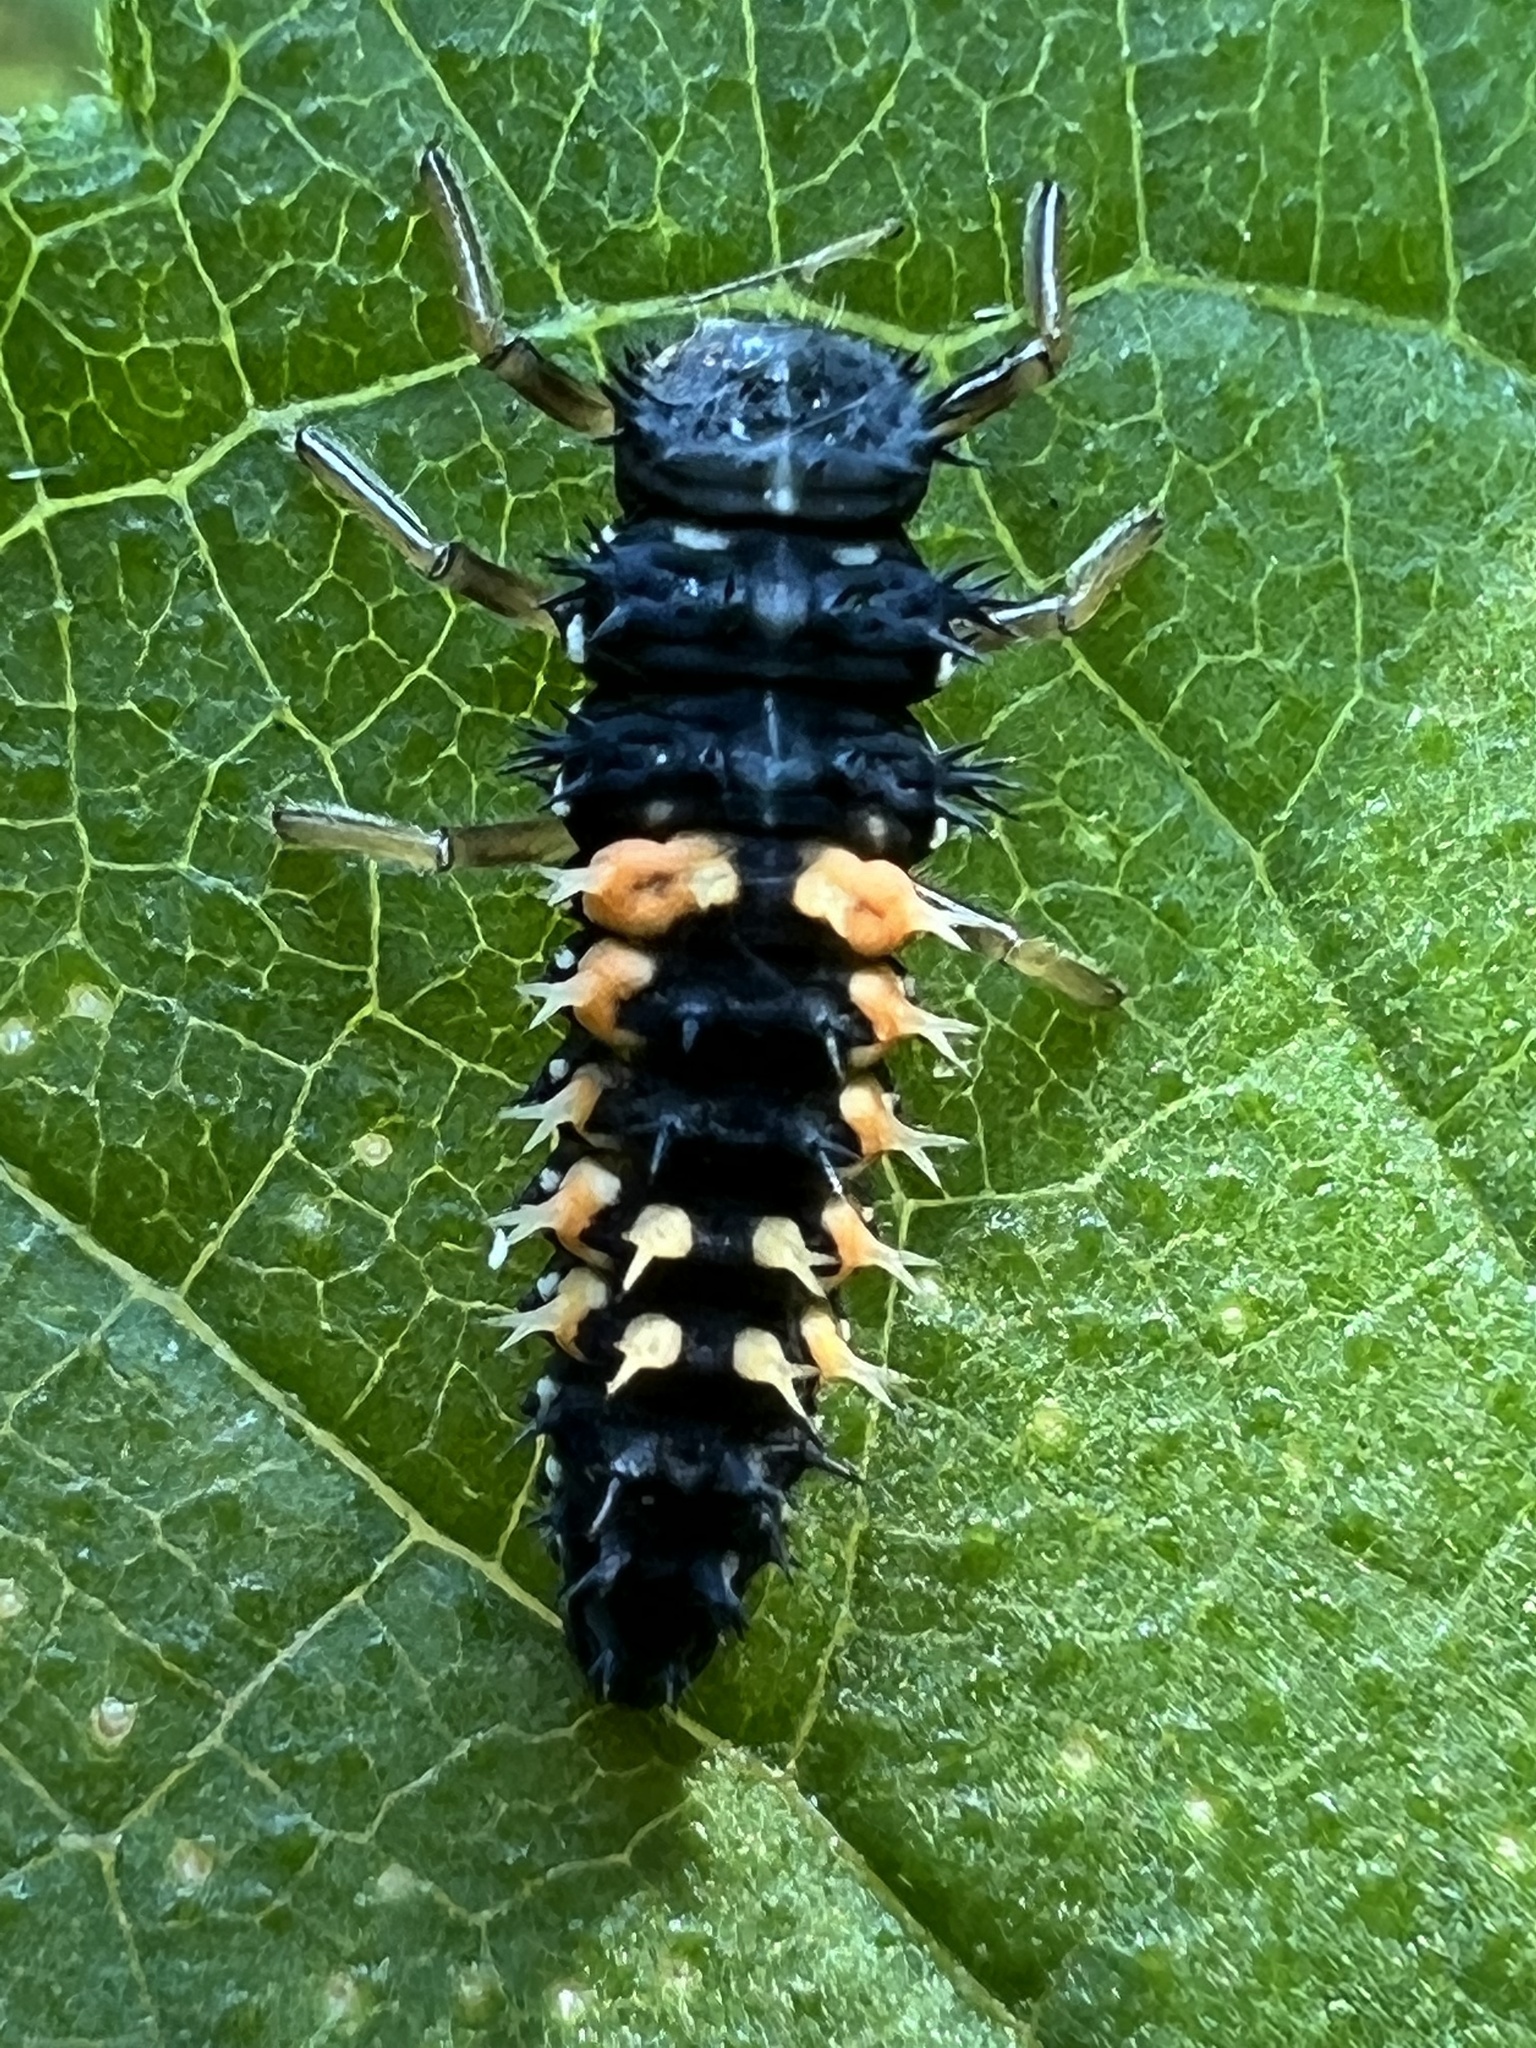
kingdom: Animalia
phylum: Arthropoda
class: Insecta
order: Coleoptera
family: Coccinellidae
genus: Harmonia
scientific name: Harmonia axyridis
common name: Harlequin ladybird
